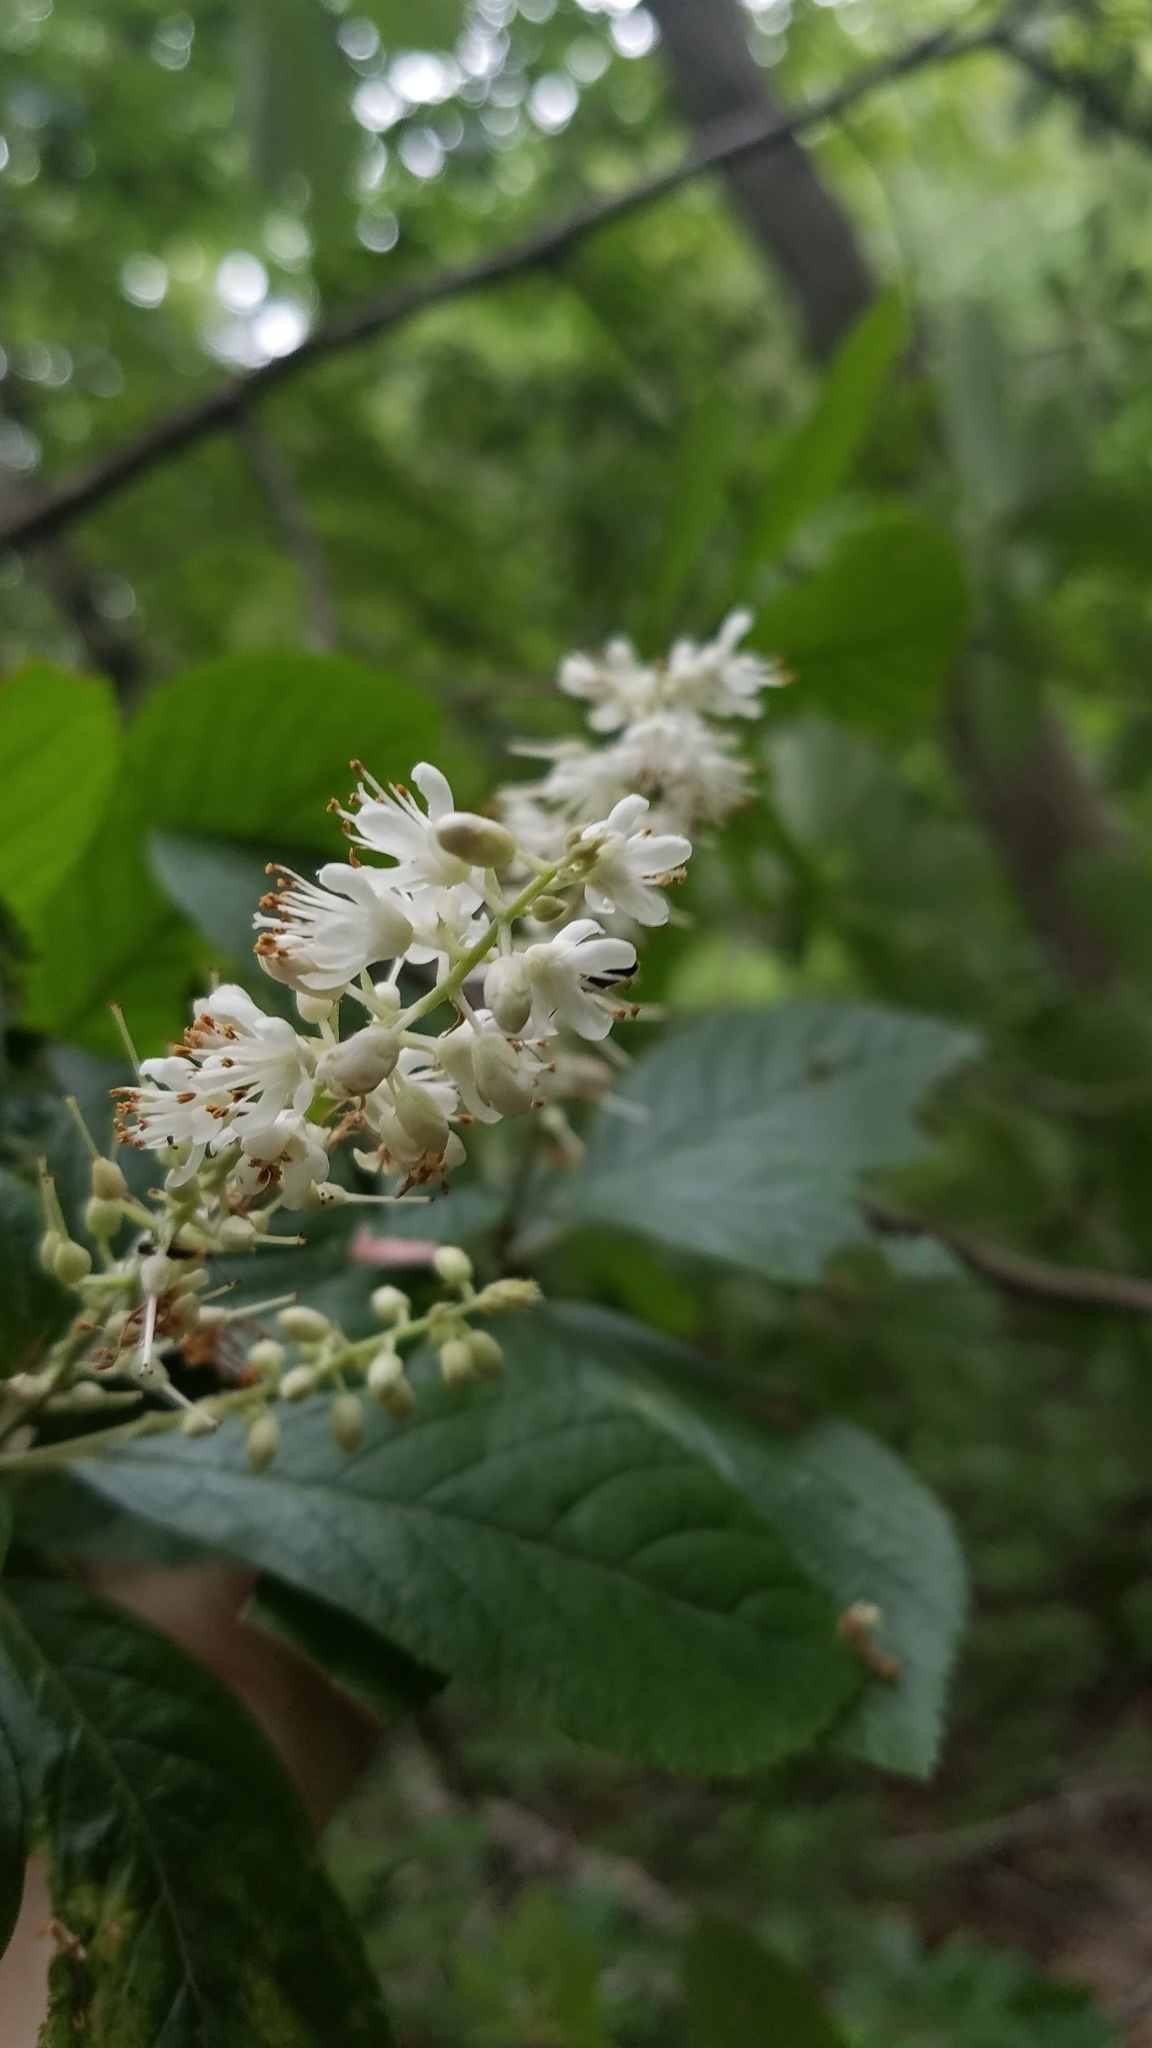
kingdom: Plantae
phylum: Tracheophyta
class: Magnoliopsida
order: Ericales
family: Clethraceae
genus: Clethra
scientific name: Clethra alnifolia
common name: Sweet pepperbush
